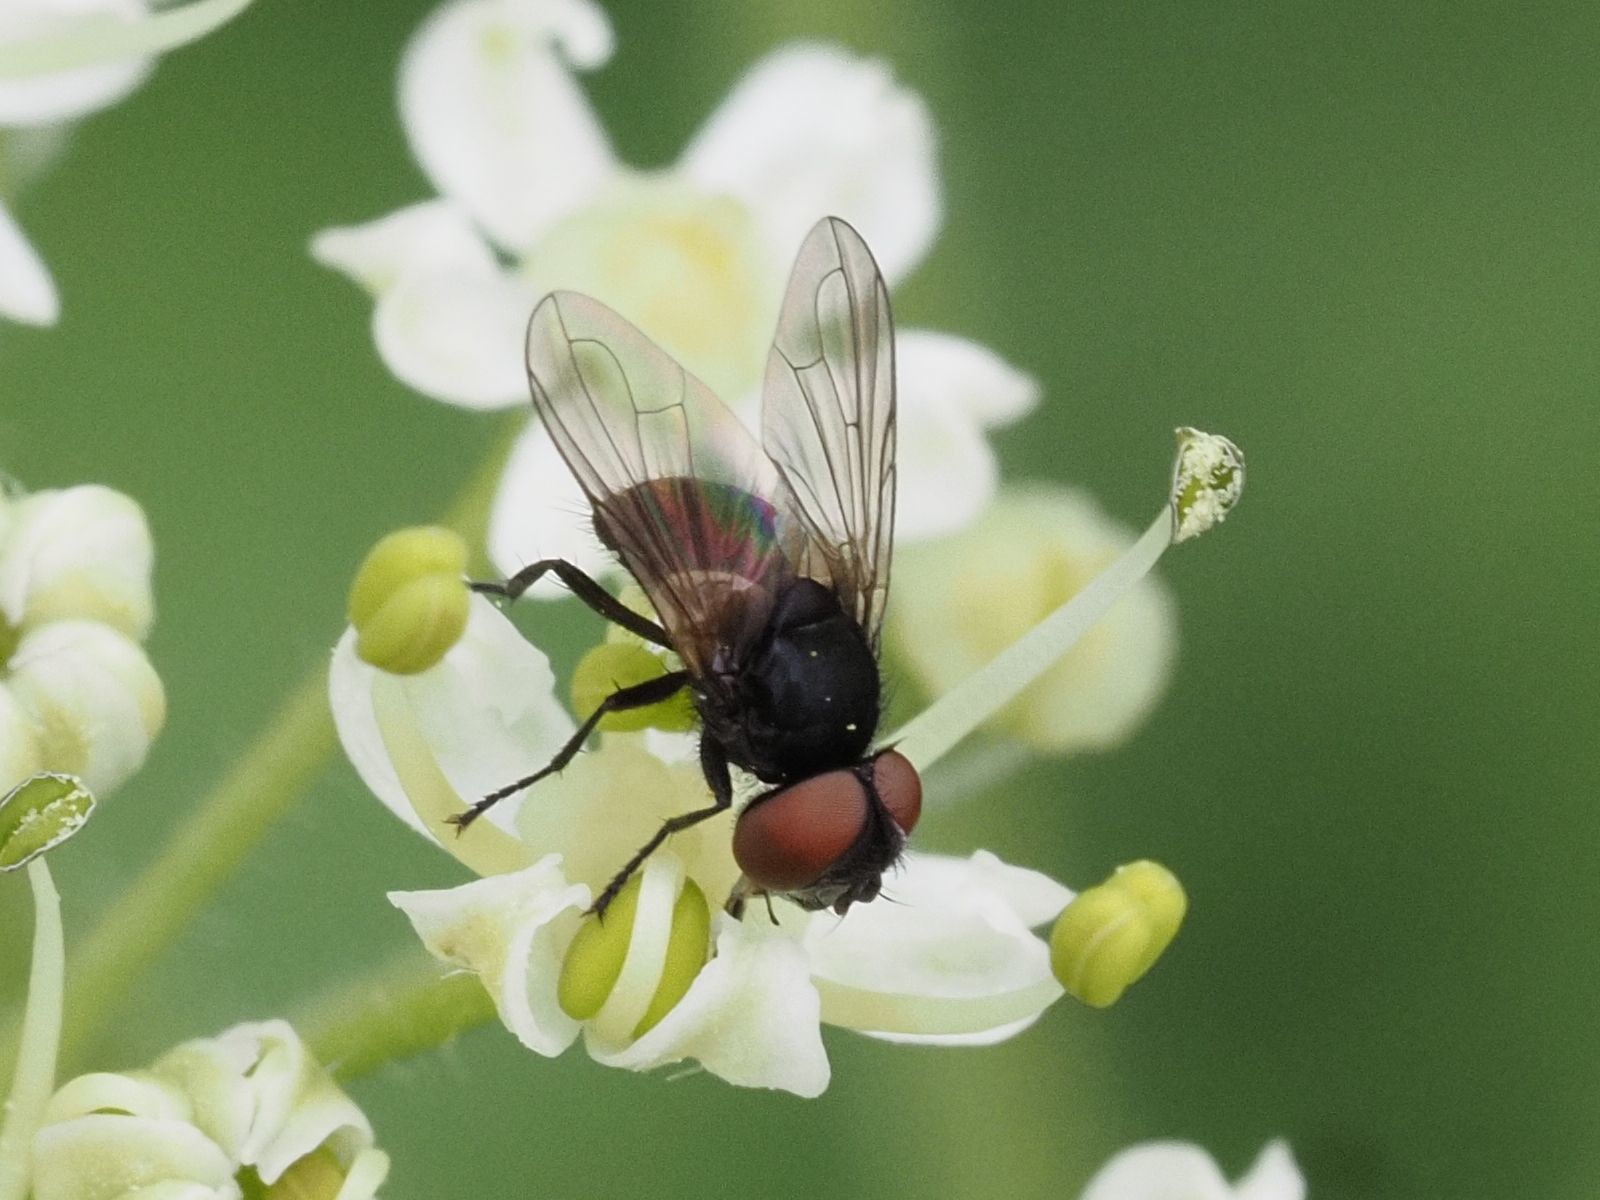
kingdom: Animalia
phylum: Arthropoda
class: Insecta
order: Diptera
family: Tachinidae
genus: Phasia
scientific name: Phasia barbifrons
